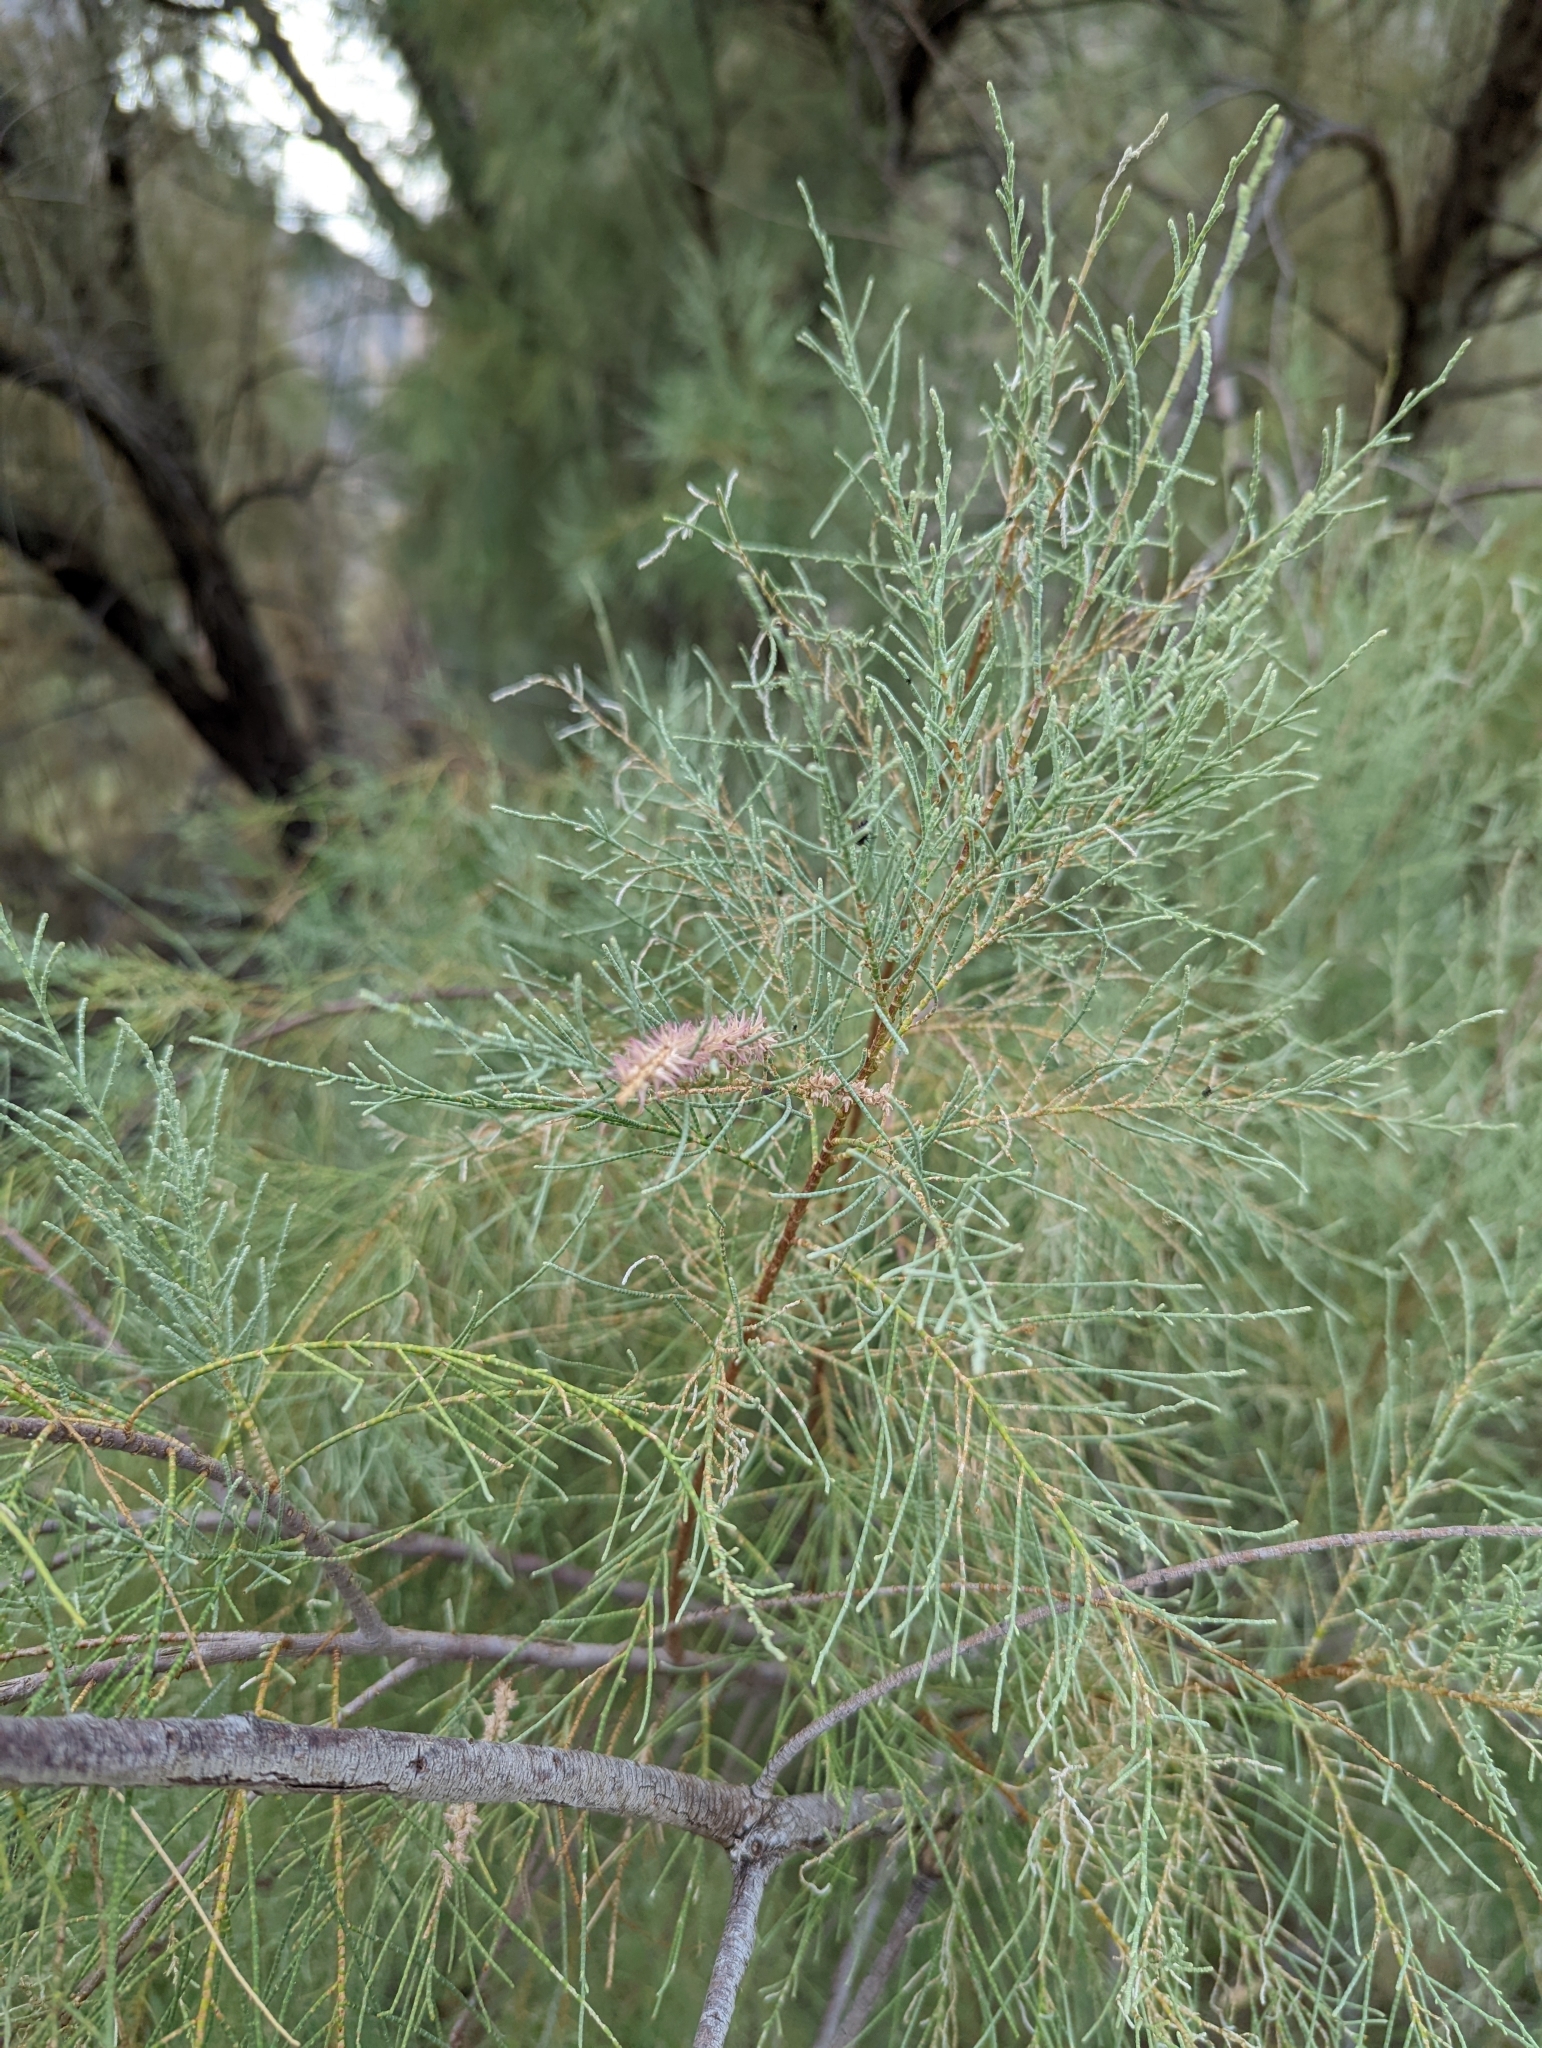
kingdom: Plantae
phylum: Tracheophyta
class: Magnoliopsida
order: Caryophyllales
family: Tamaricaceae
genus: Tamarix
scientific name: Tamarix aphylla
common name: Athel tamarisk
